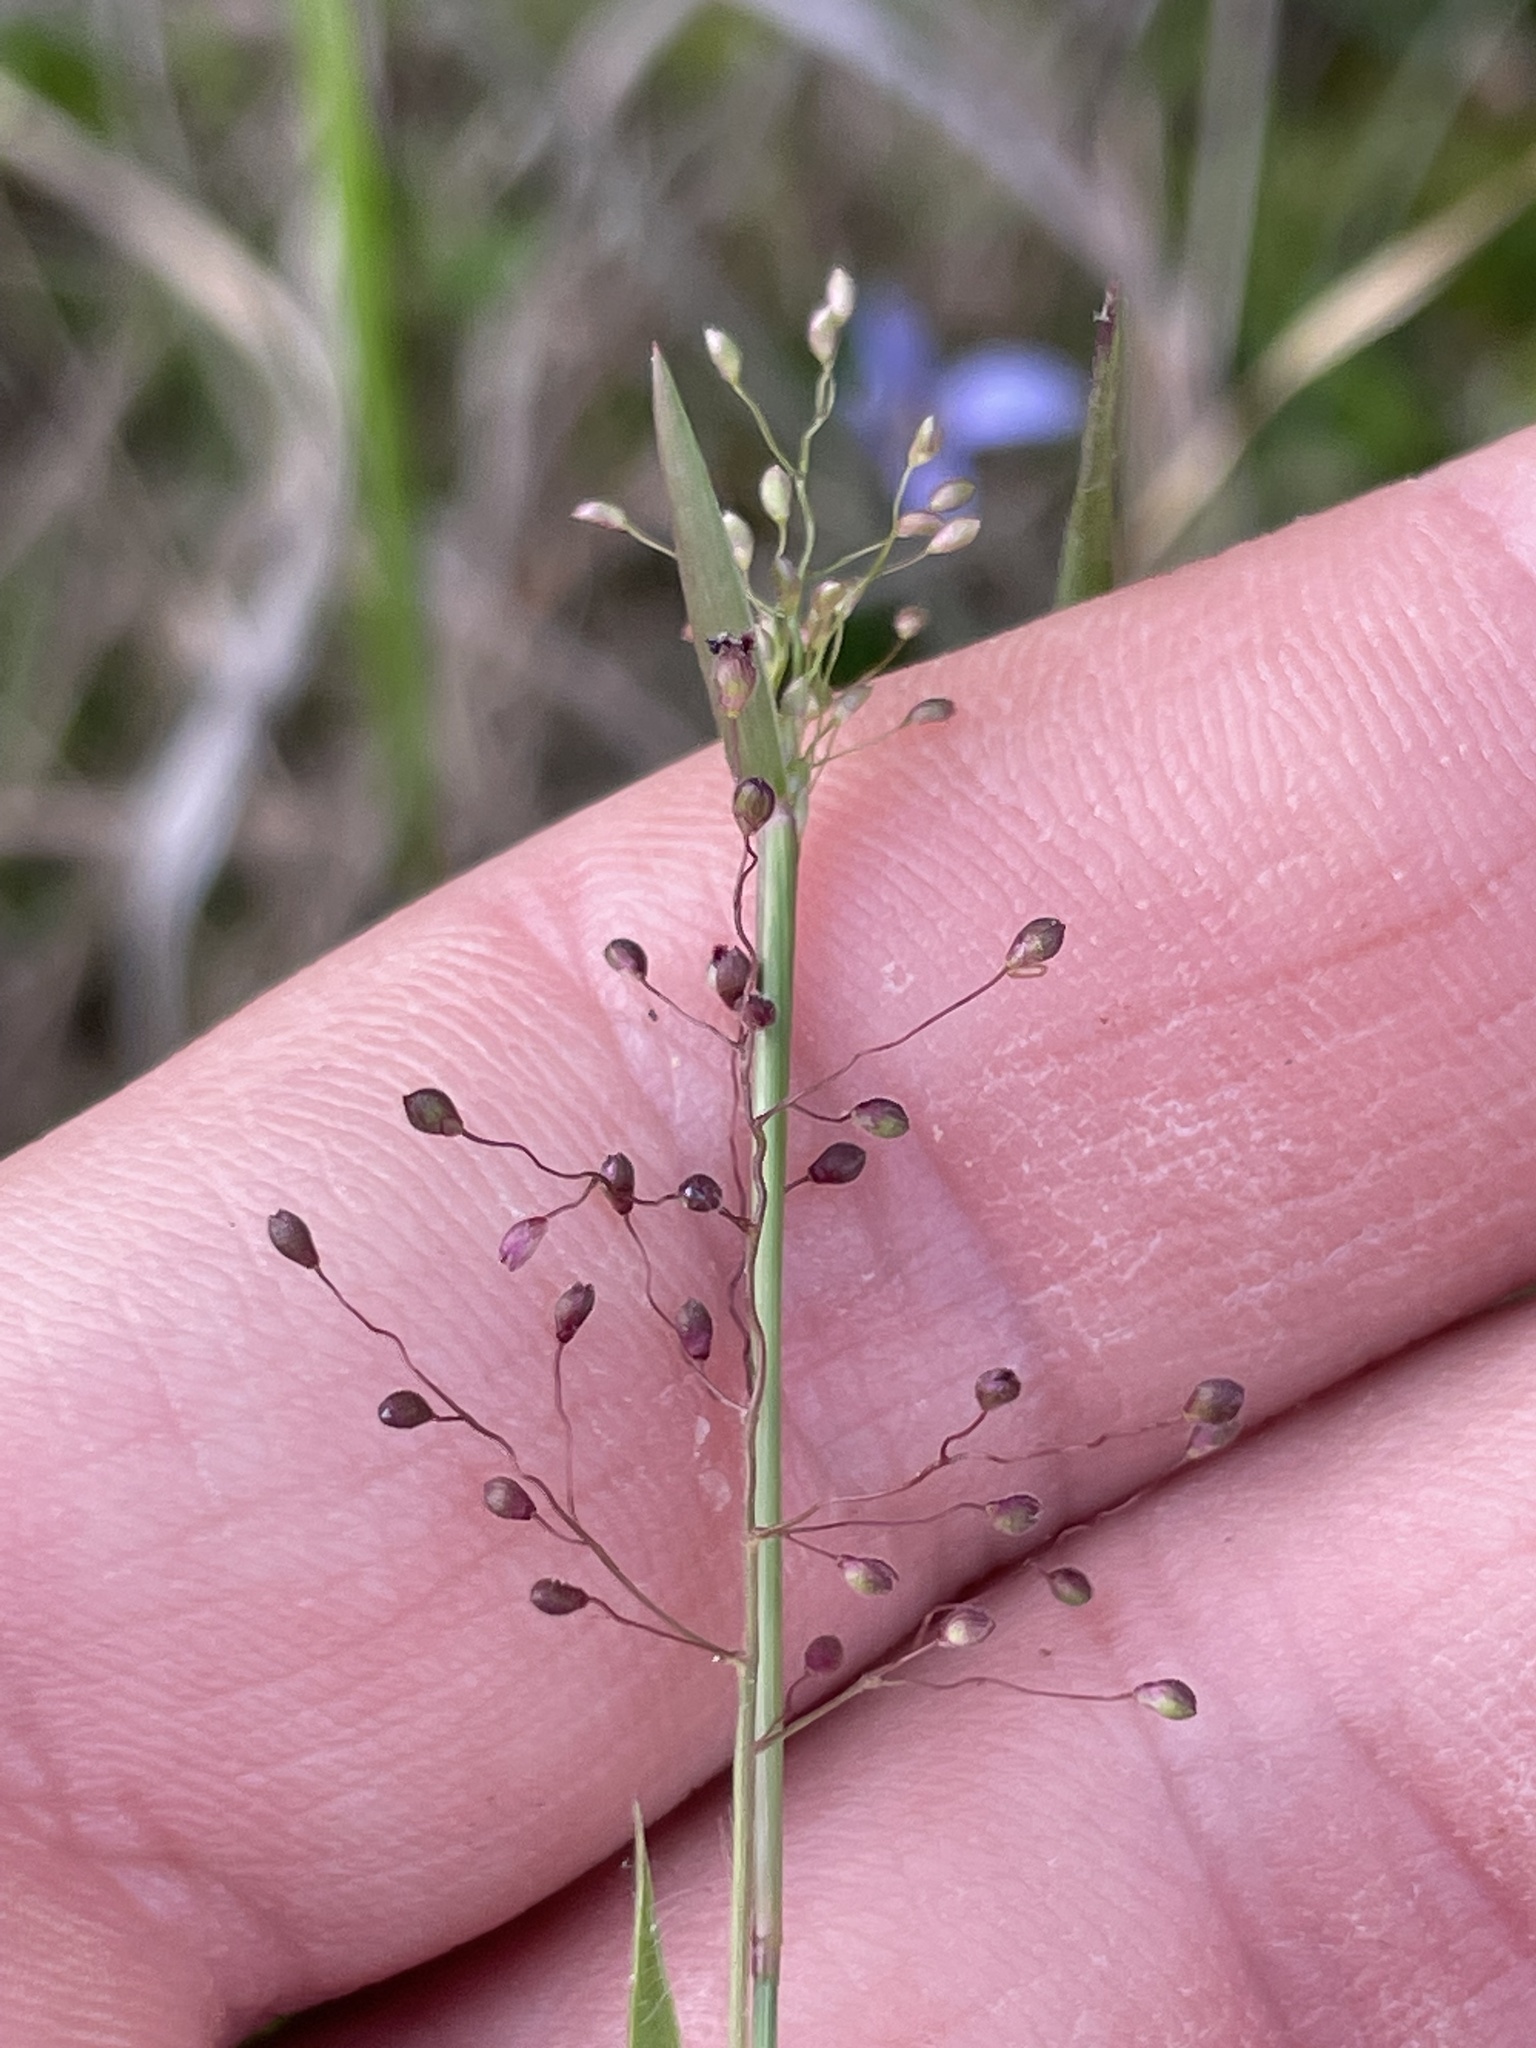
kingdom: Plantae
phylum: Tracheophyta
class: Liliopsida
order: Poales
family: Poaceae
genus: Dichanthelium
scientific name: Dichanthelium curtifolium
